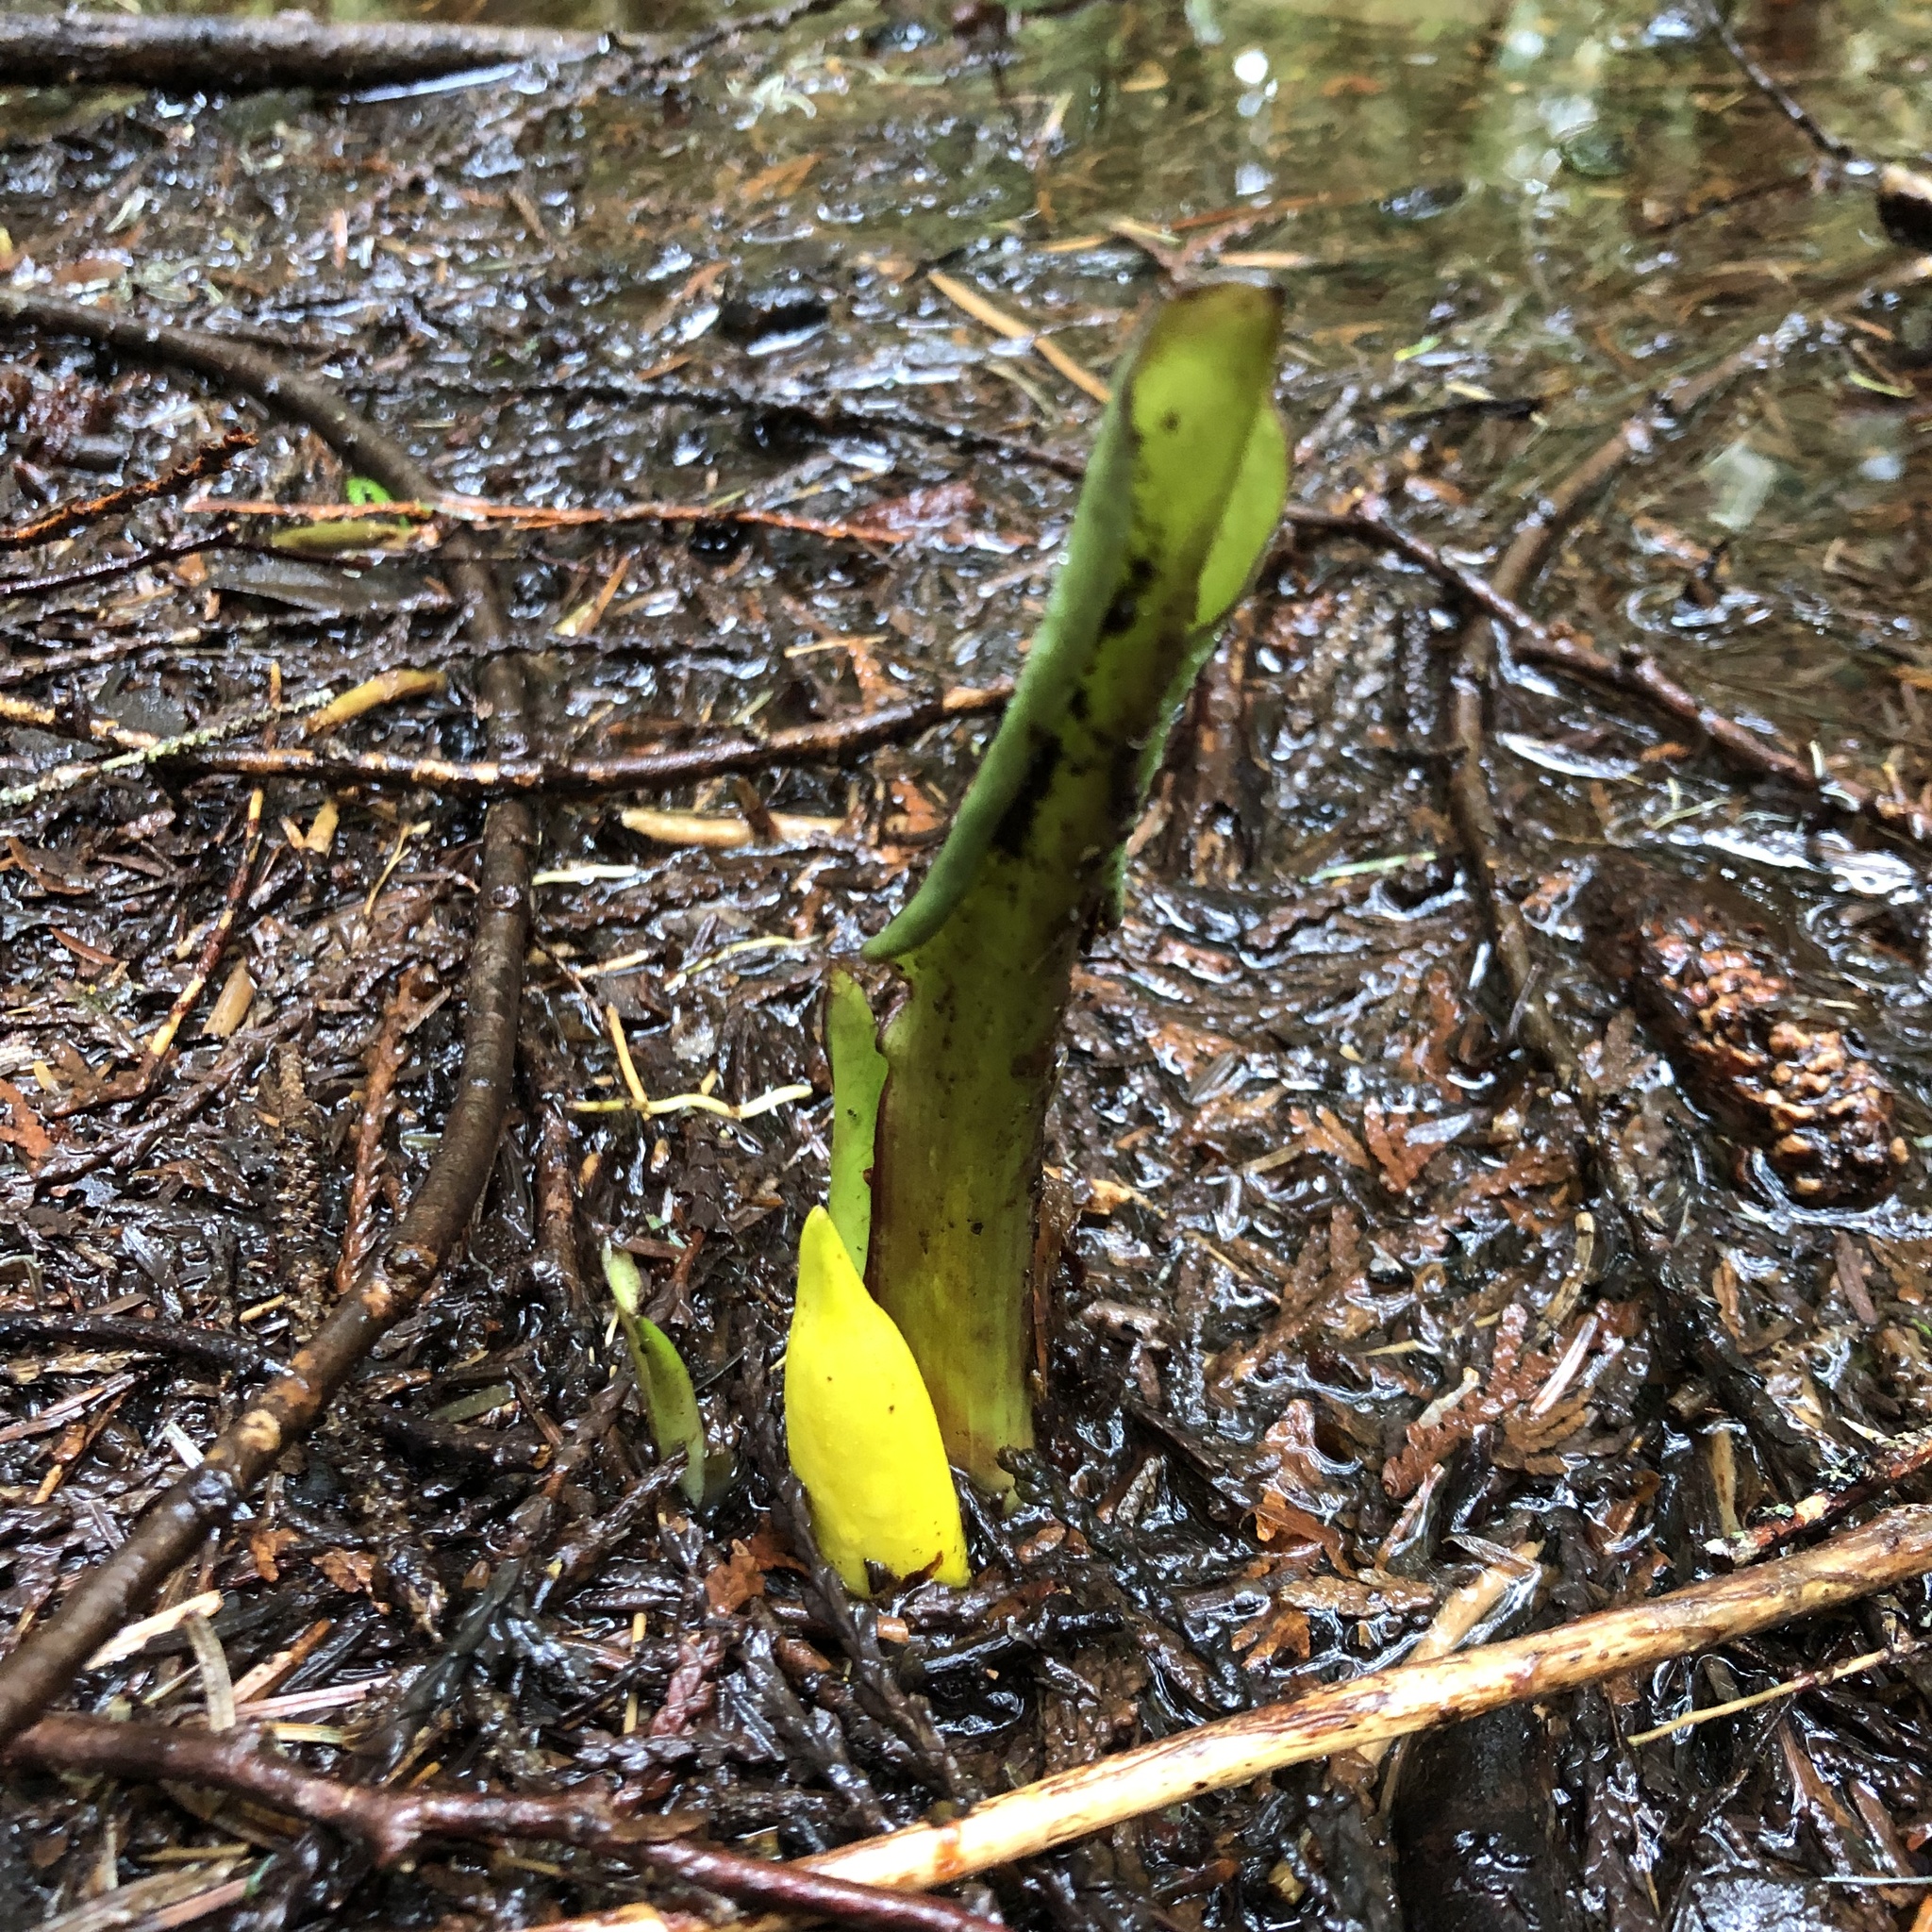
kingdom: Plantae
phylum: Tracheophyta
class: Liliopsida
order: Alismatales
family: Araceae
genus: Lysichiton
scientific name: Lysichiton americanus
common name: American skunk cabbage
